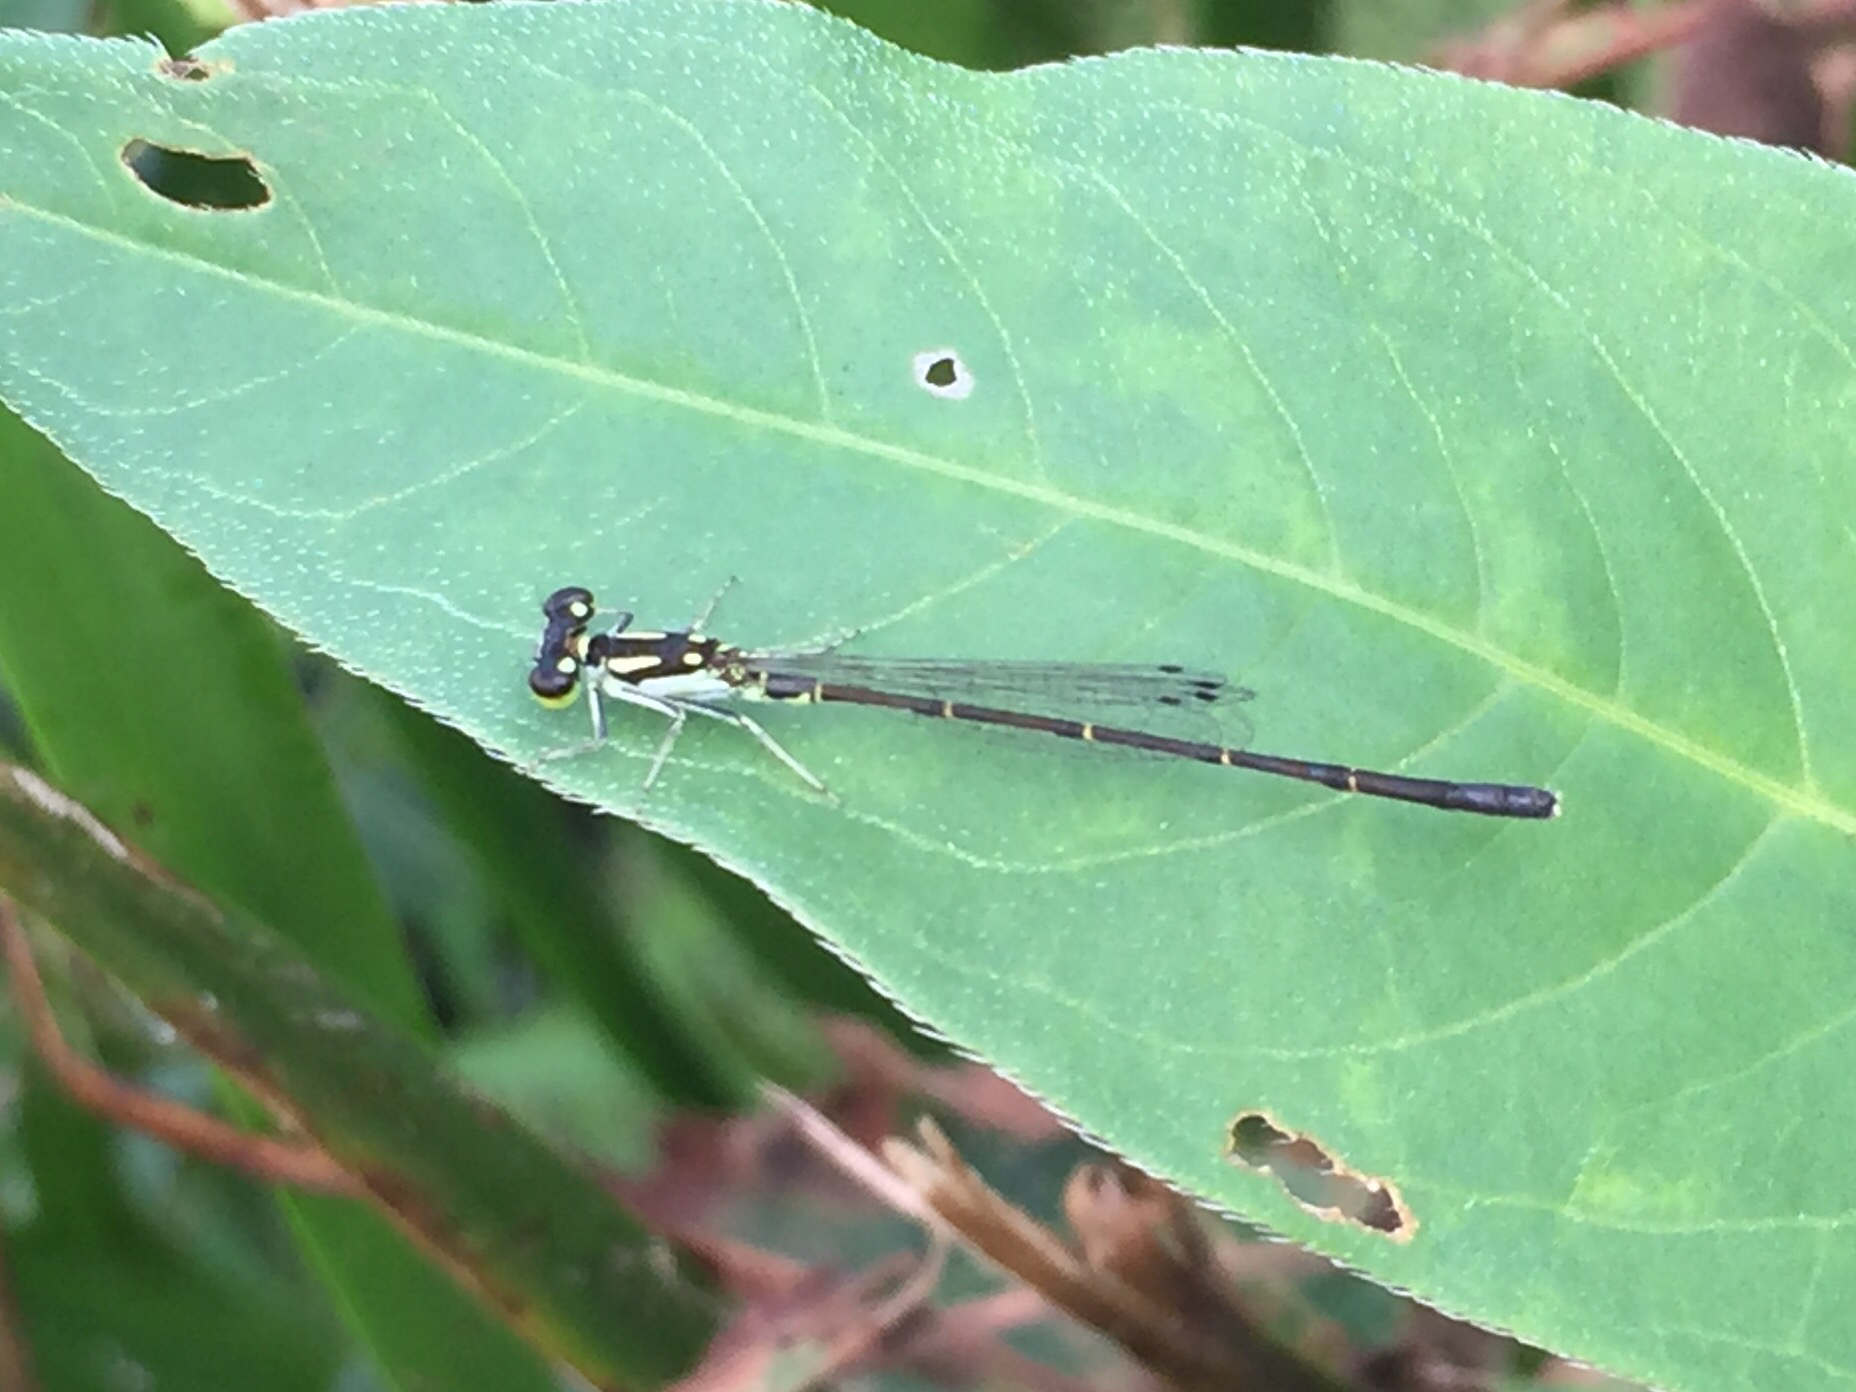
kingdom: Animalia
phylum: Arthropoda
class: Insecta
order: Odonata
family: Coenagrionidae
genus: Ischnura
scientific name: Ischnura posita
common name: Fragile forktail
